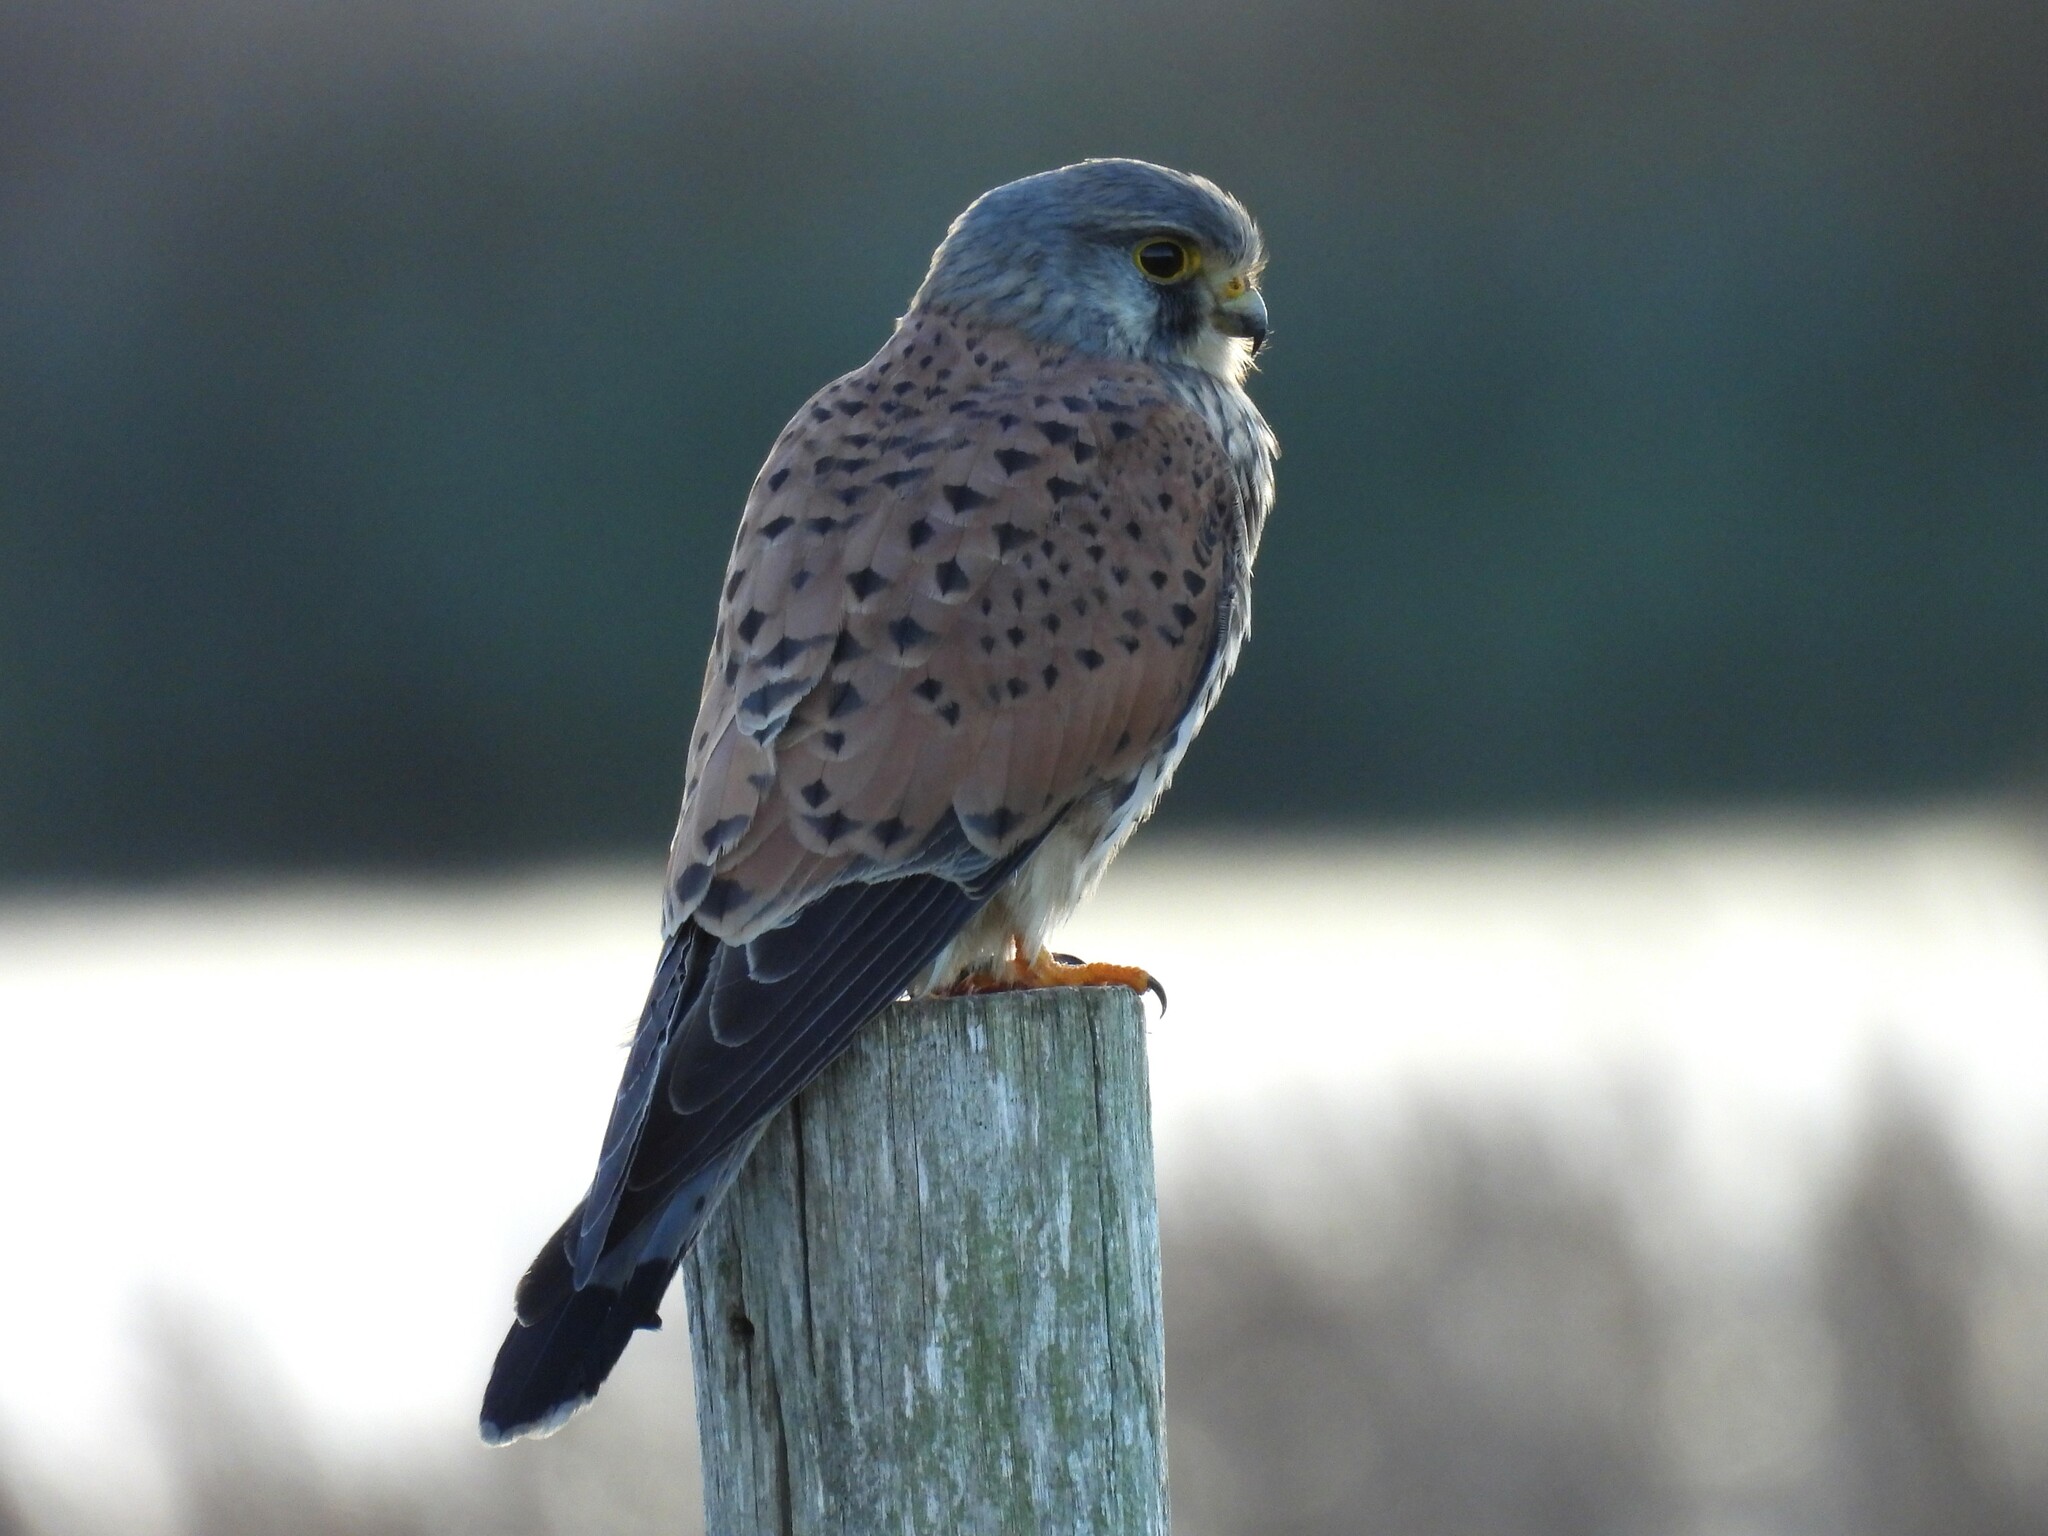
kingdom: Animalia
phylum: Chordata
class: Aves
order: Falconiformes
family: Falconidae
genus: Falco
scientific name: Falco tinnunculus
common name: Common kestrel
